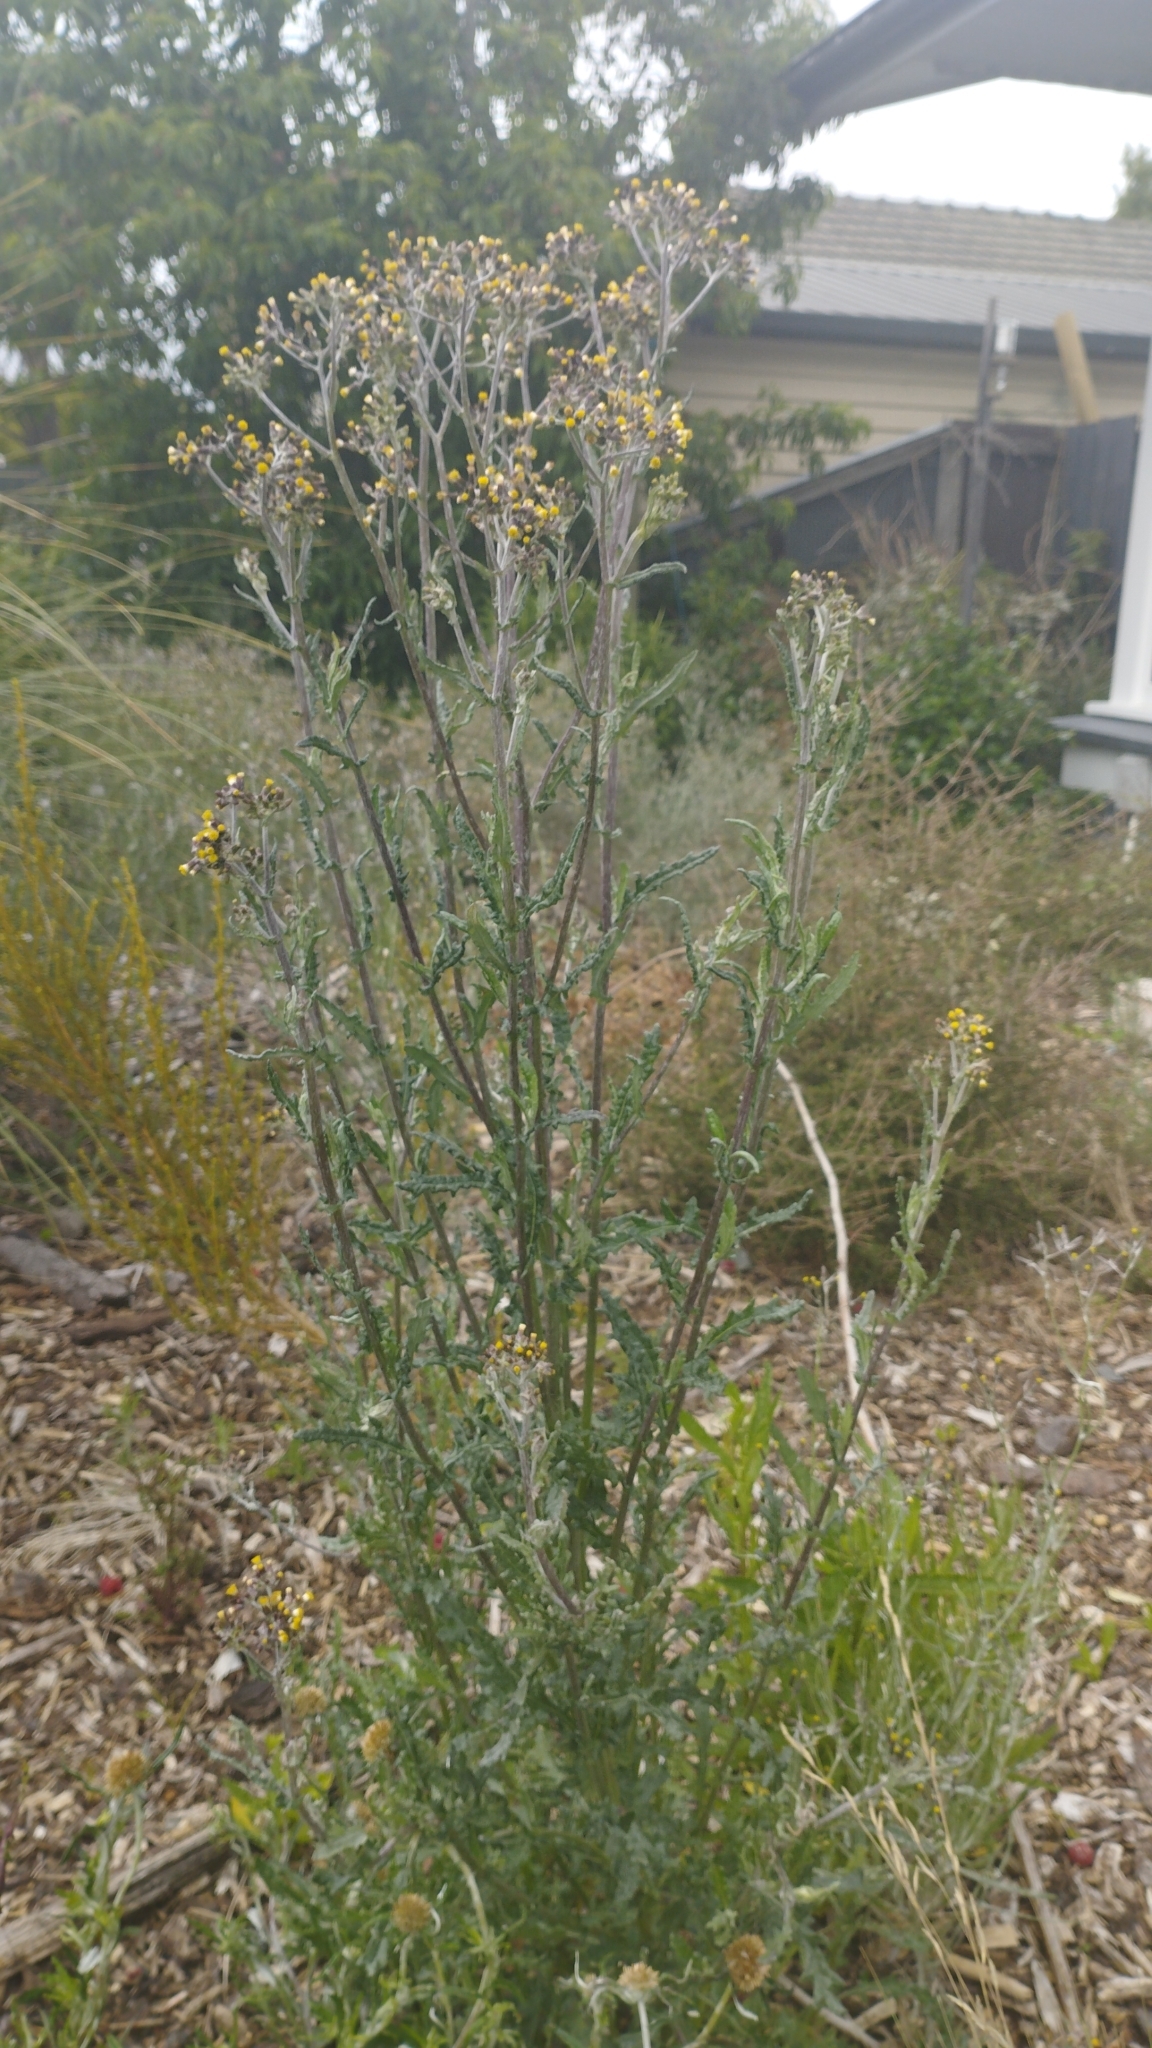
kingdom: Plantae
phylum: Tracheophyta
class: Magnoliopsida
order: Asterales
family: Asteraceae
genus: Senecio
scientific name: Senecio glomeratus
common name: Cutleaf burnweed
